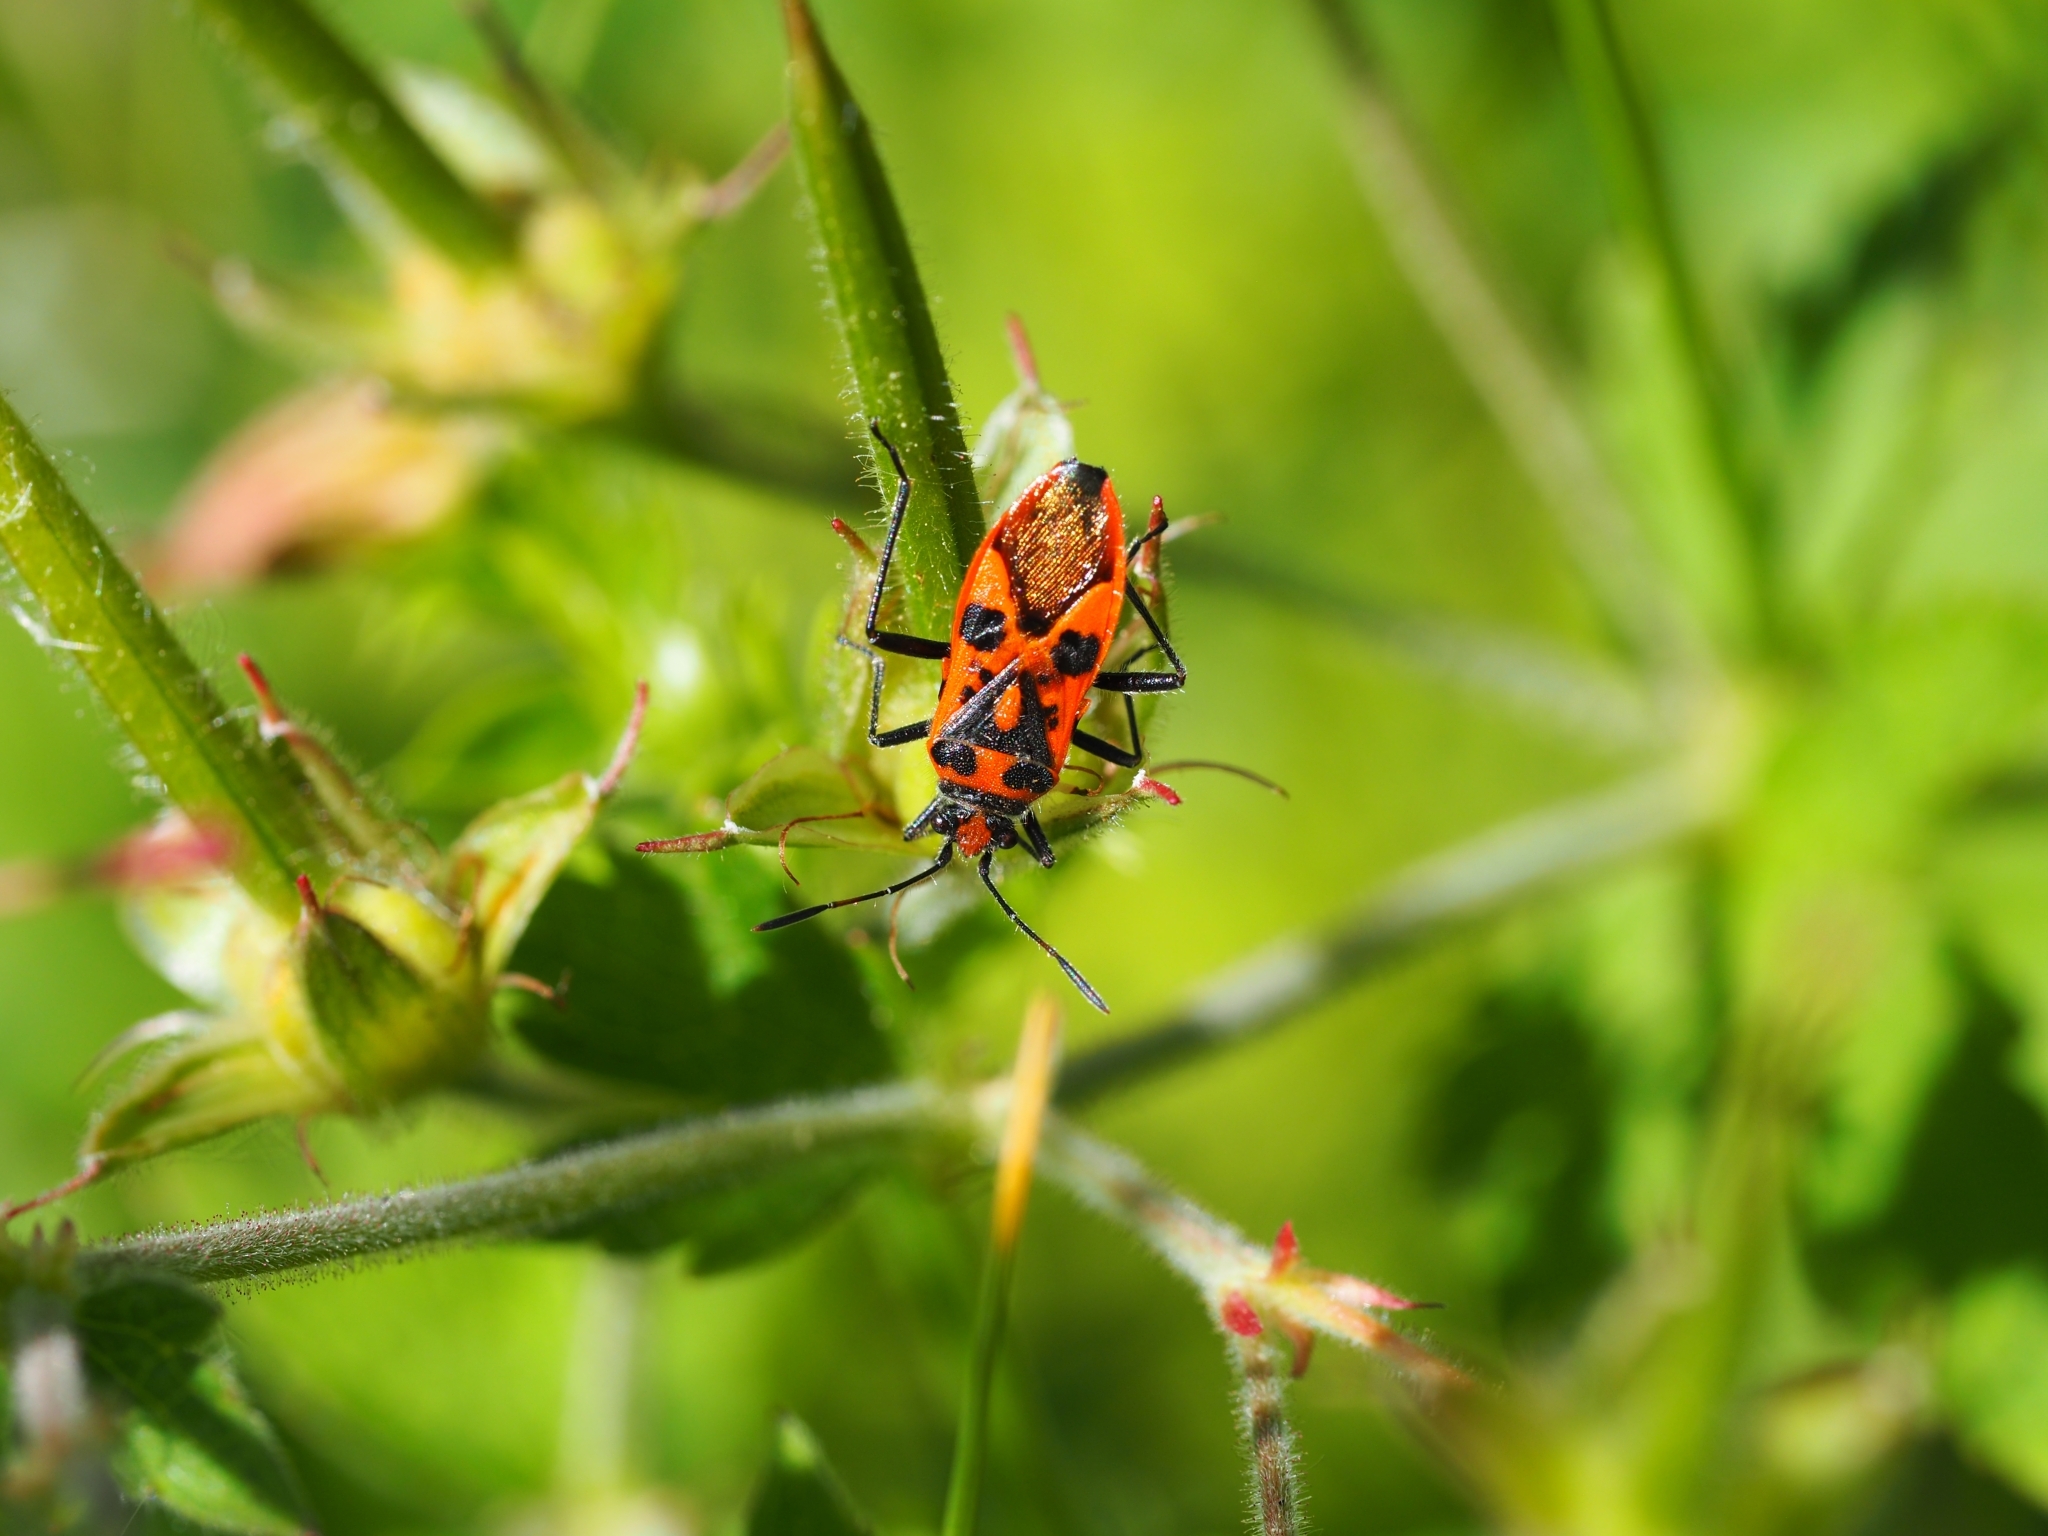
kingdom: Animalia
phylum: Arthropoda
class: Insecta
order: Hemiptera
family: Rhopalidae
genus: Corizus
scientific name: Corizus hyoscyami
